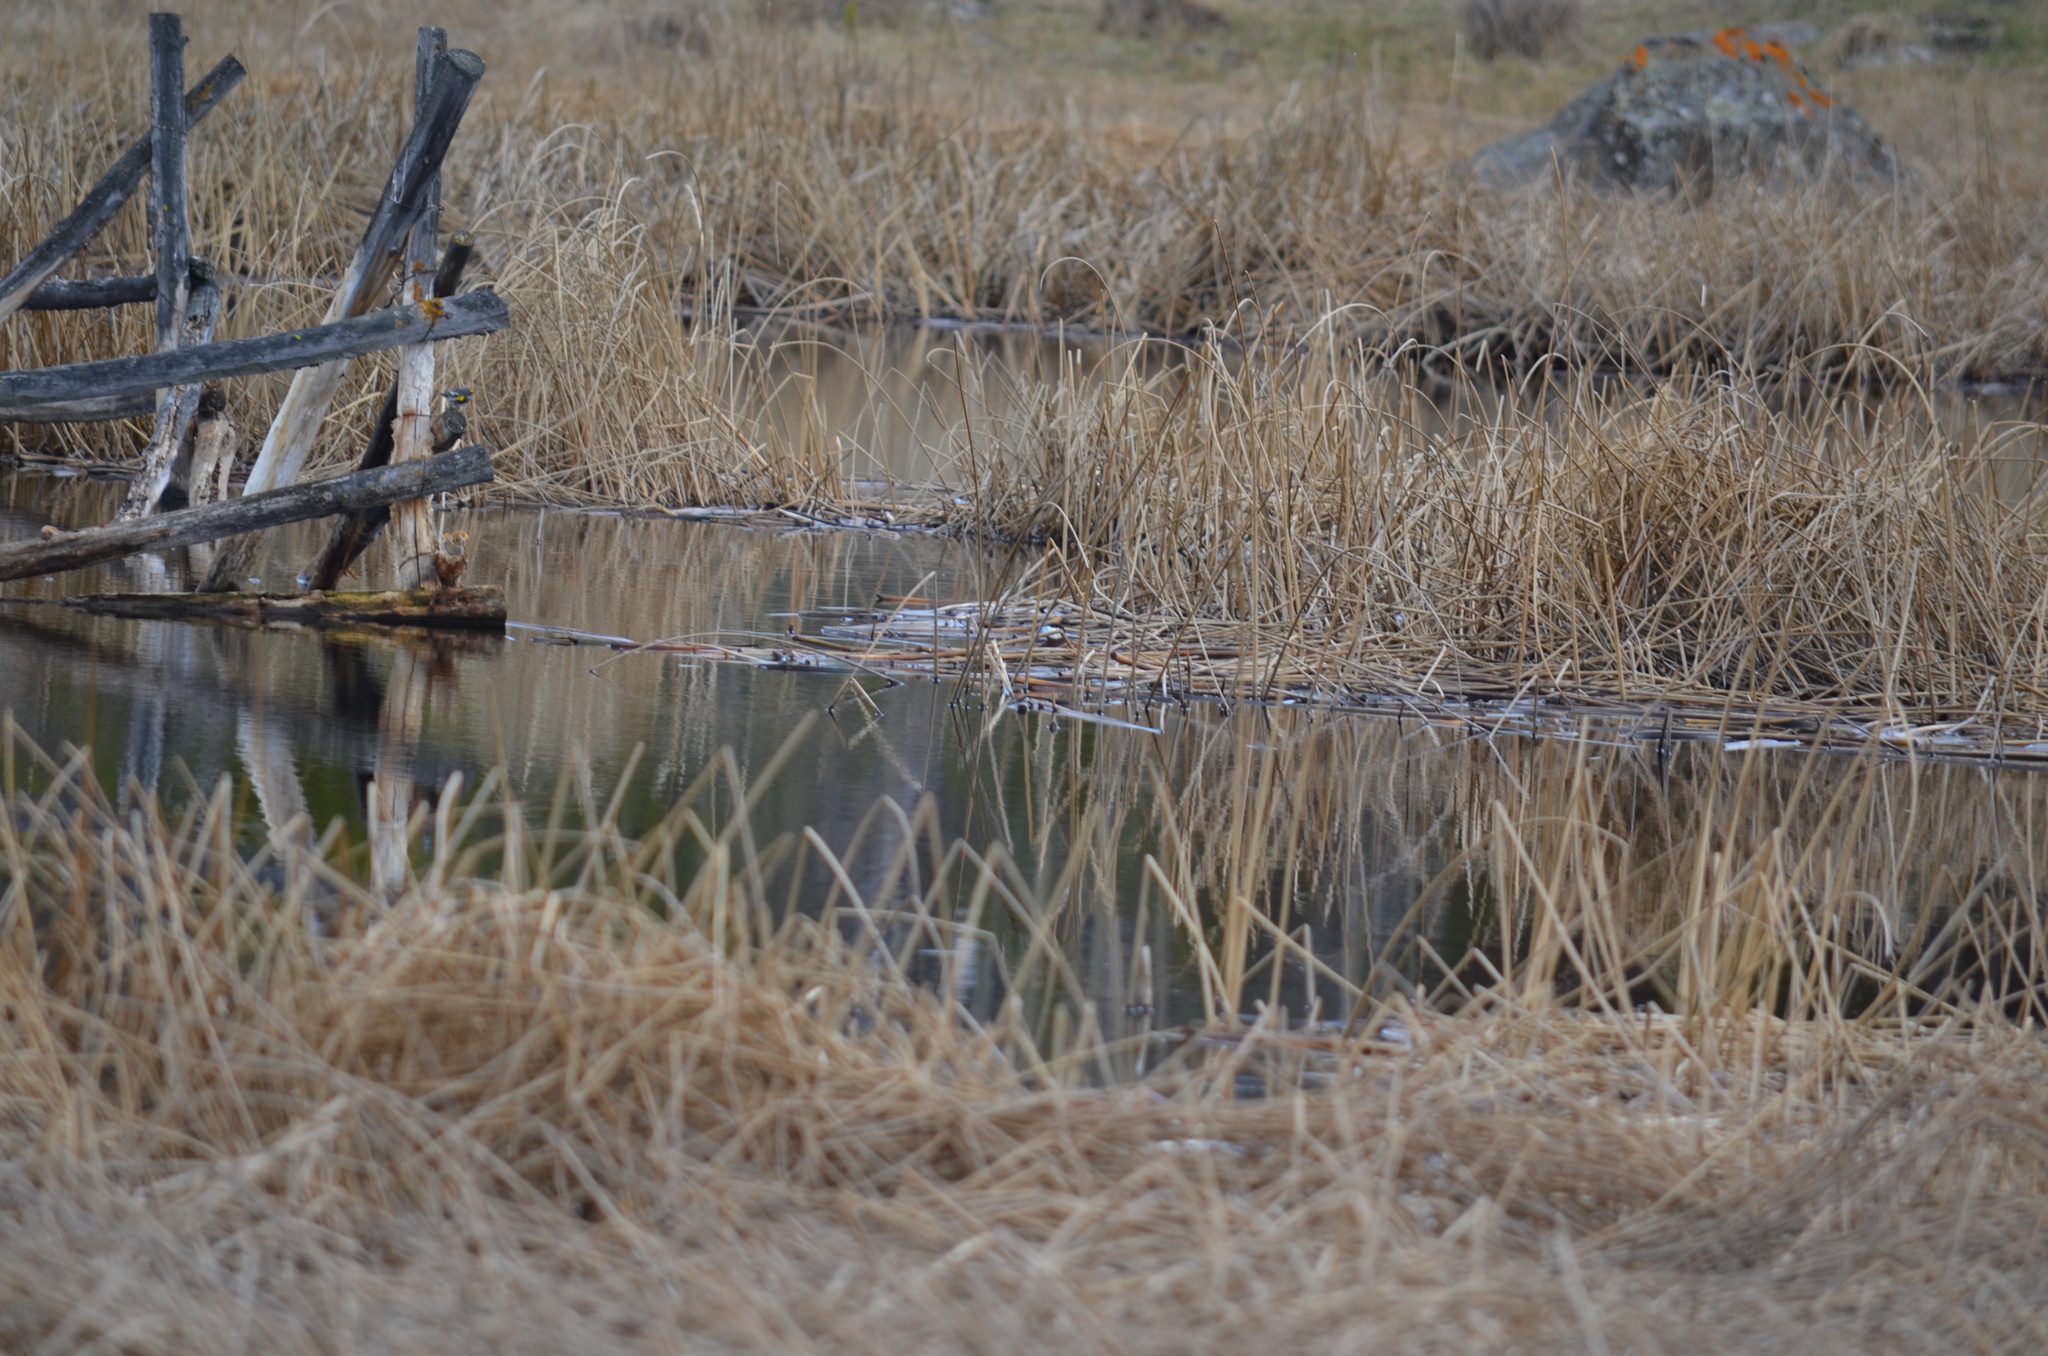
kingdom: Animalia
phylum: Chordata
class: Aves
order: Passeriformes
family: Parulidae
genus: Setophaga
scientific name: Setophaga auduboni
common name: Audubon's warbler
